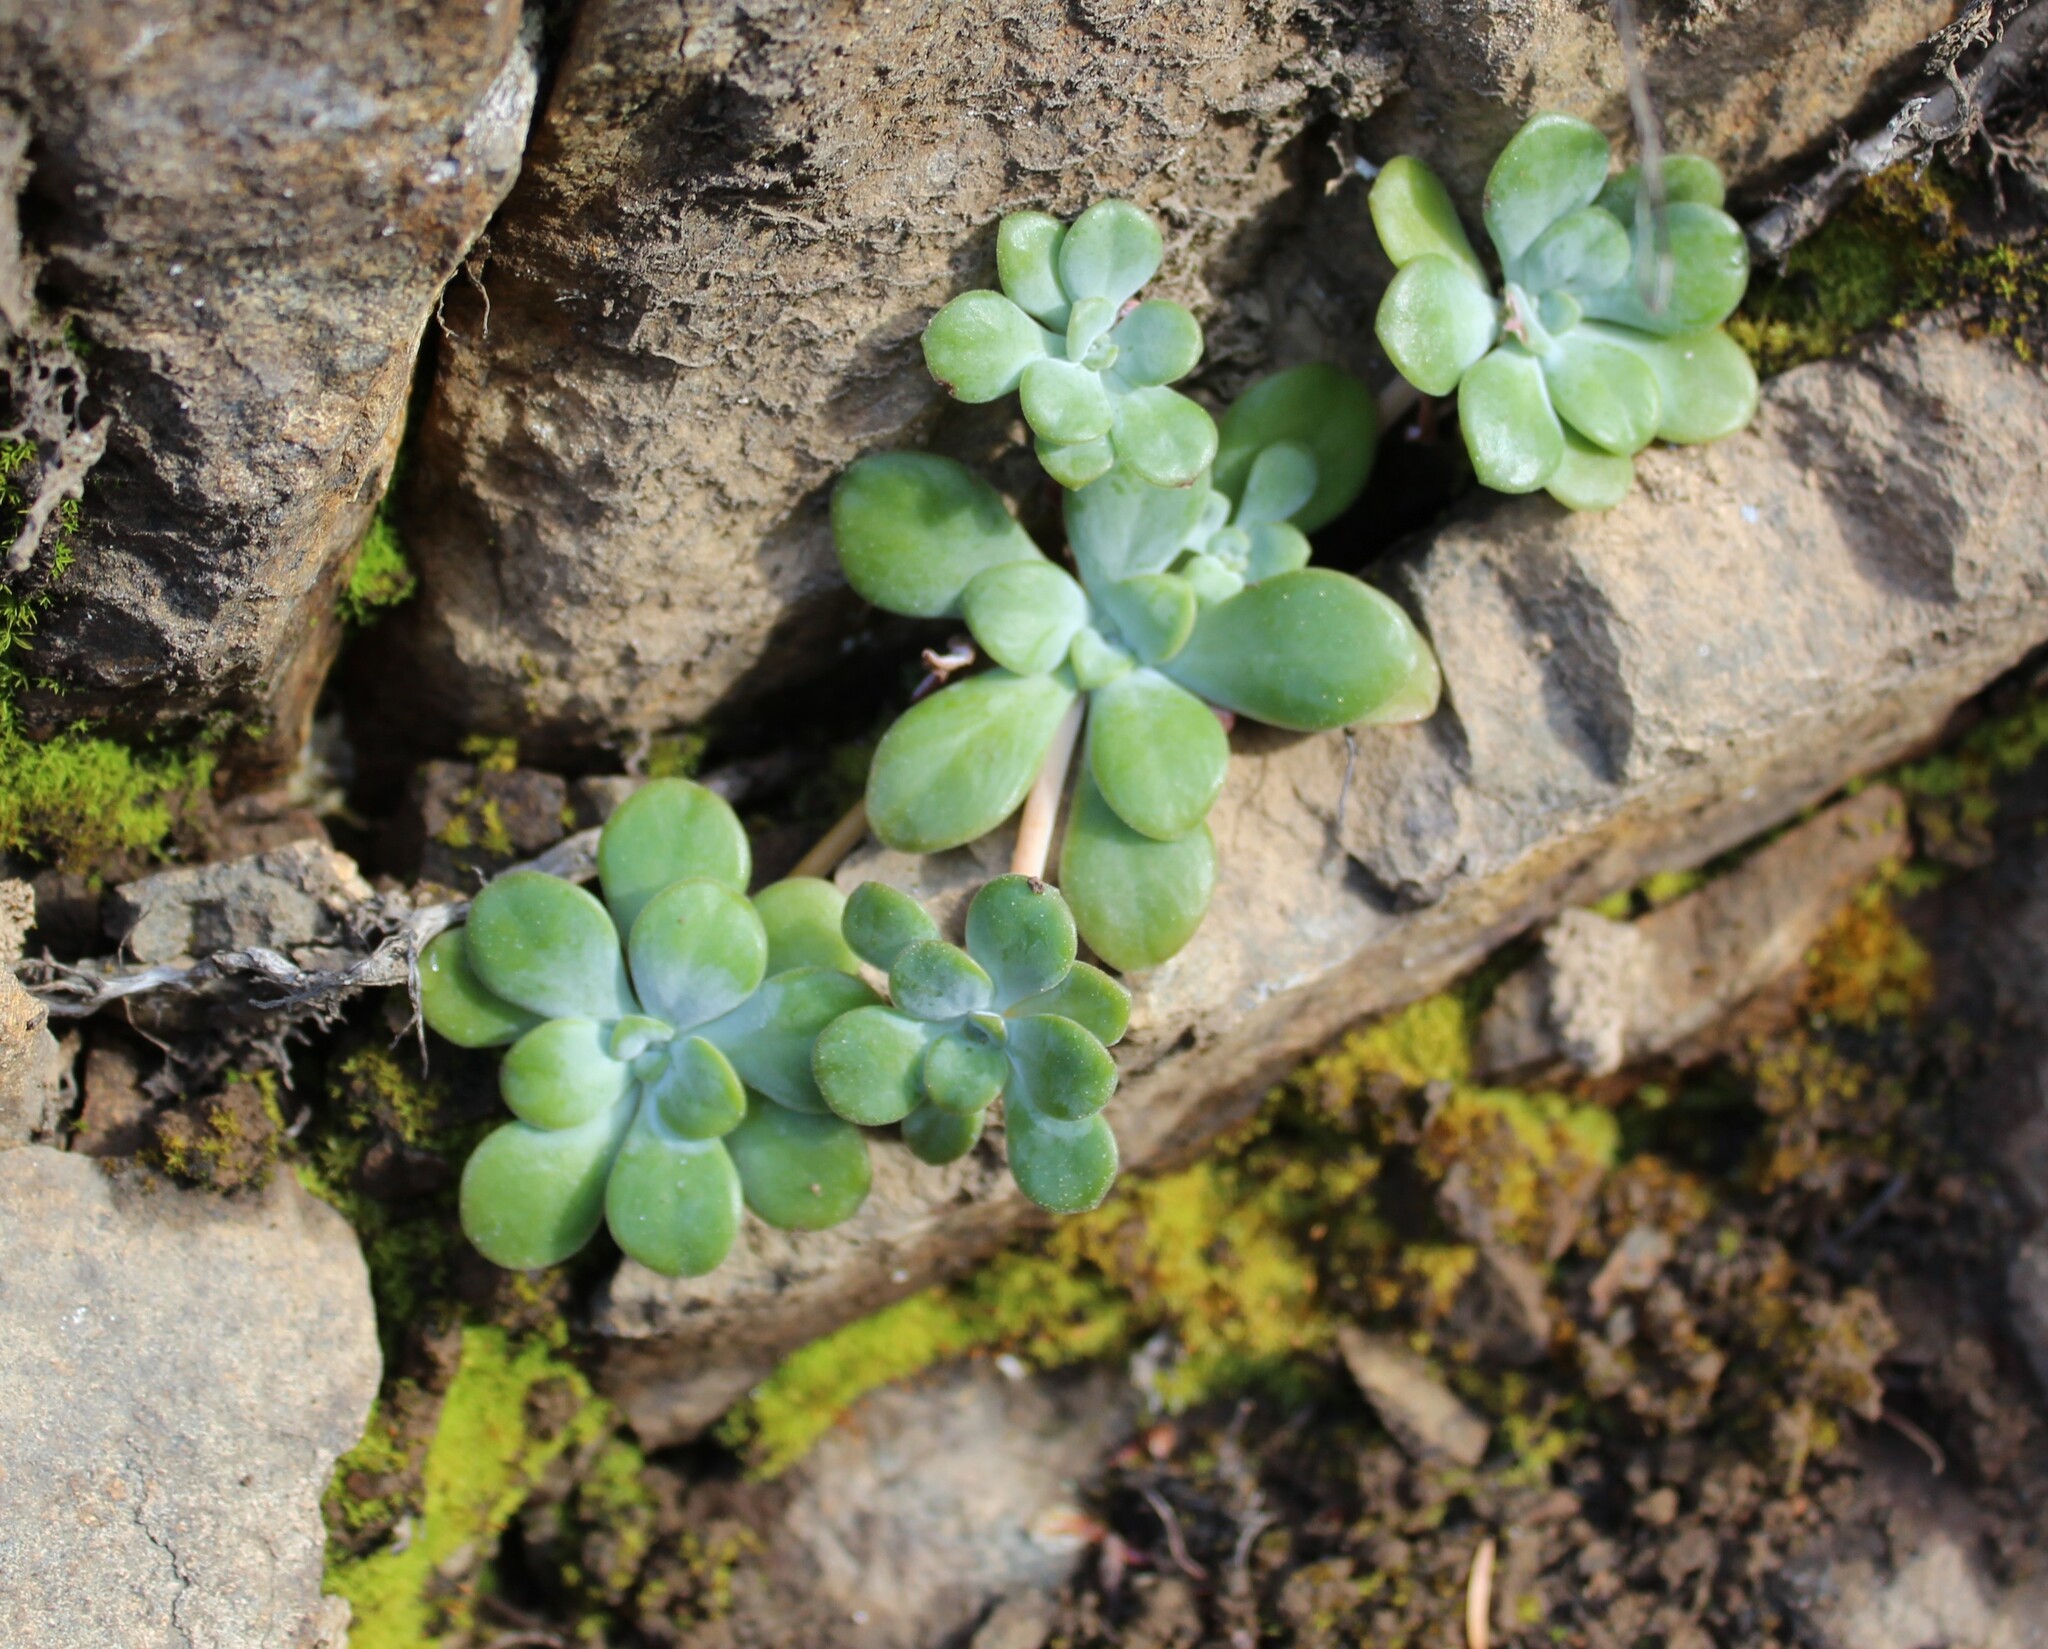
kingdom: Plantae
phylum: Tracheophyta
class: Magnoliopsida
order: Saxifragales
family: Crassulaceae
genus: Sedum
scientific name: Sedum spathulifolium
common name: Colorado stonecrop
